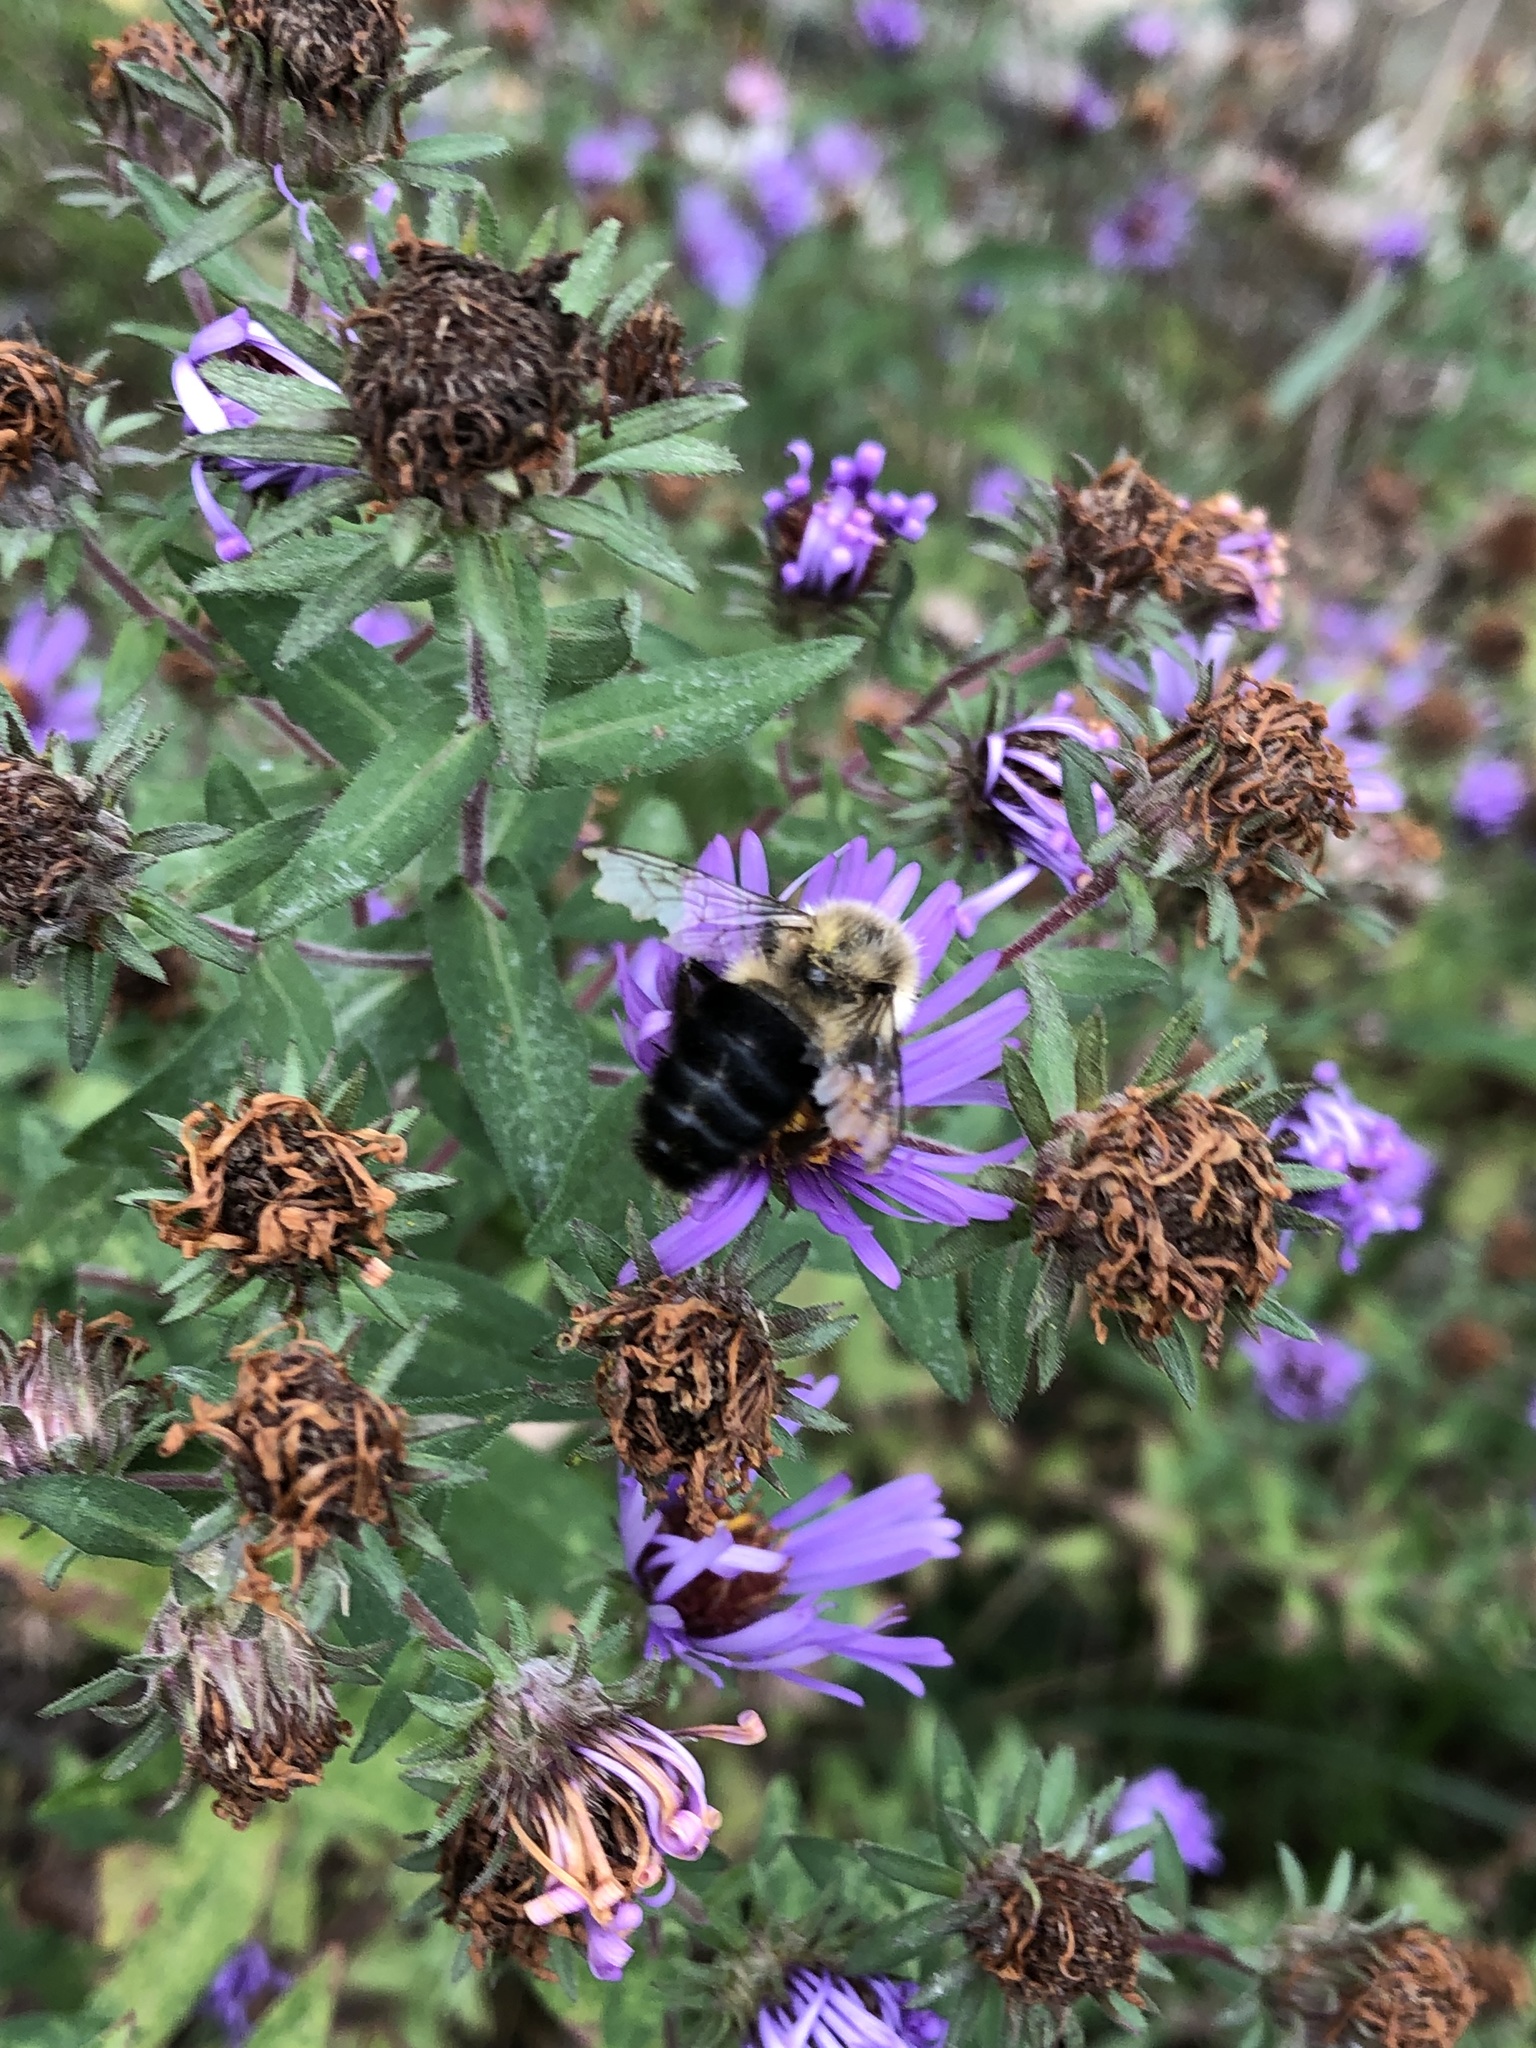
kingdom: Animalia
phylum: Arthropoda
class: Insecta
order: Hymenoptera
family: Apidae
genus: Bombus
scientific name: Bombus impatiens
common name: Common eastern bumble bee
